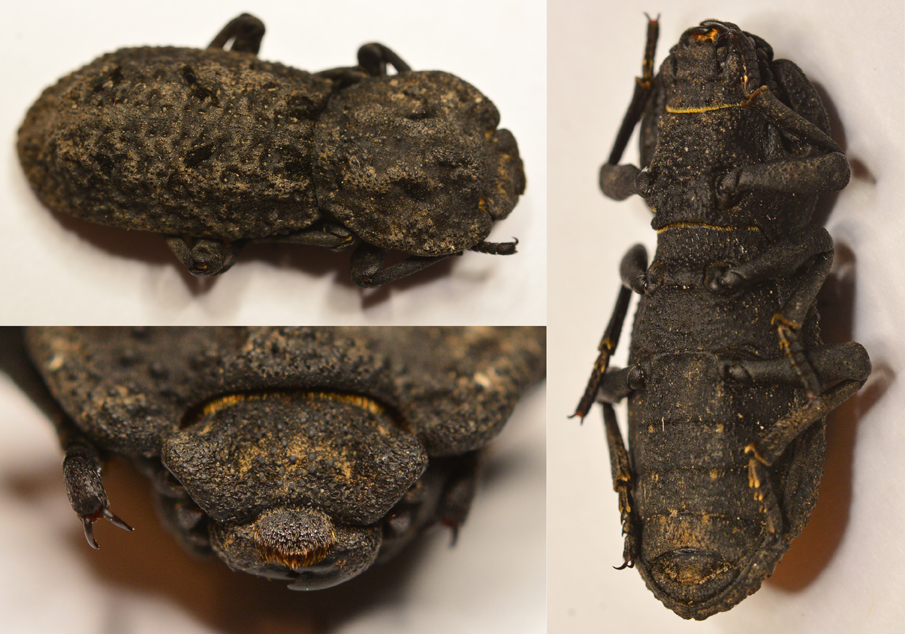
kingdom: Animalia
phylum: Arthropoda
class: Insecta
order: Coleoptera
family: Zopheridae
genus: Phloeodes
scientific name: Phloeodes diabolicus
